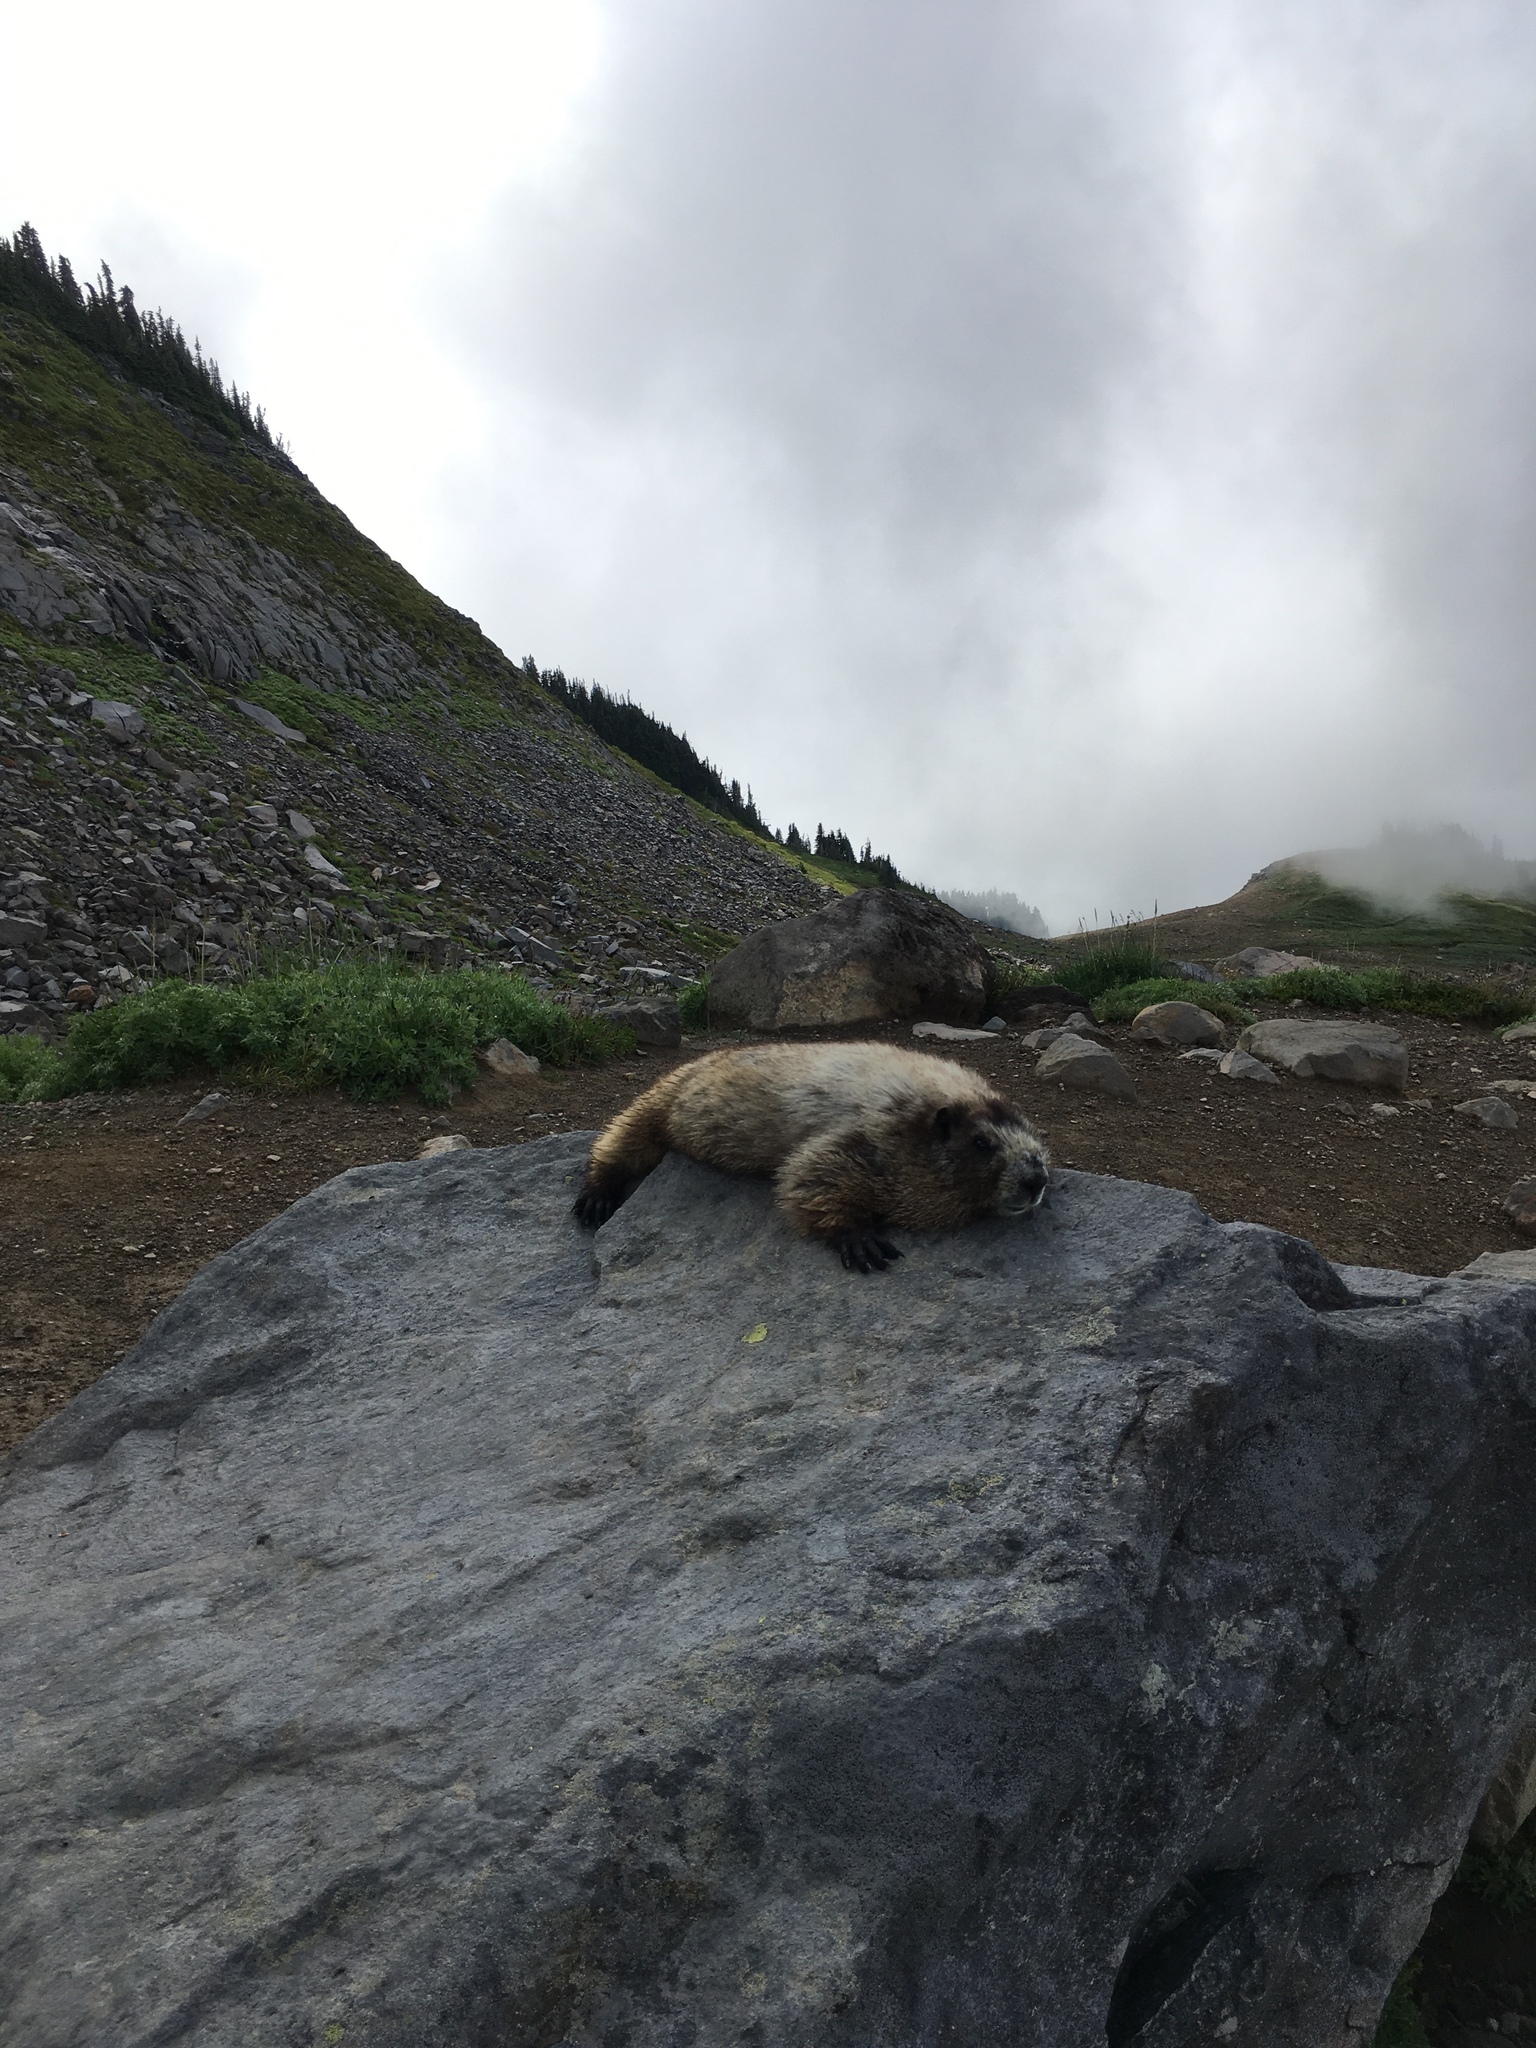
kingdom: Animalia
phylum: Chordata
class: Mammalia
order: Rodentia
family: Sciuridae
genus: Marmota
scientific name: Marmota caligata
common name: Hoary marmot
